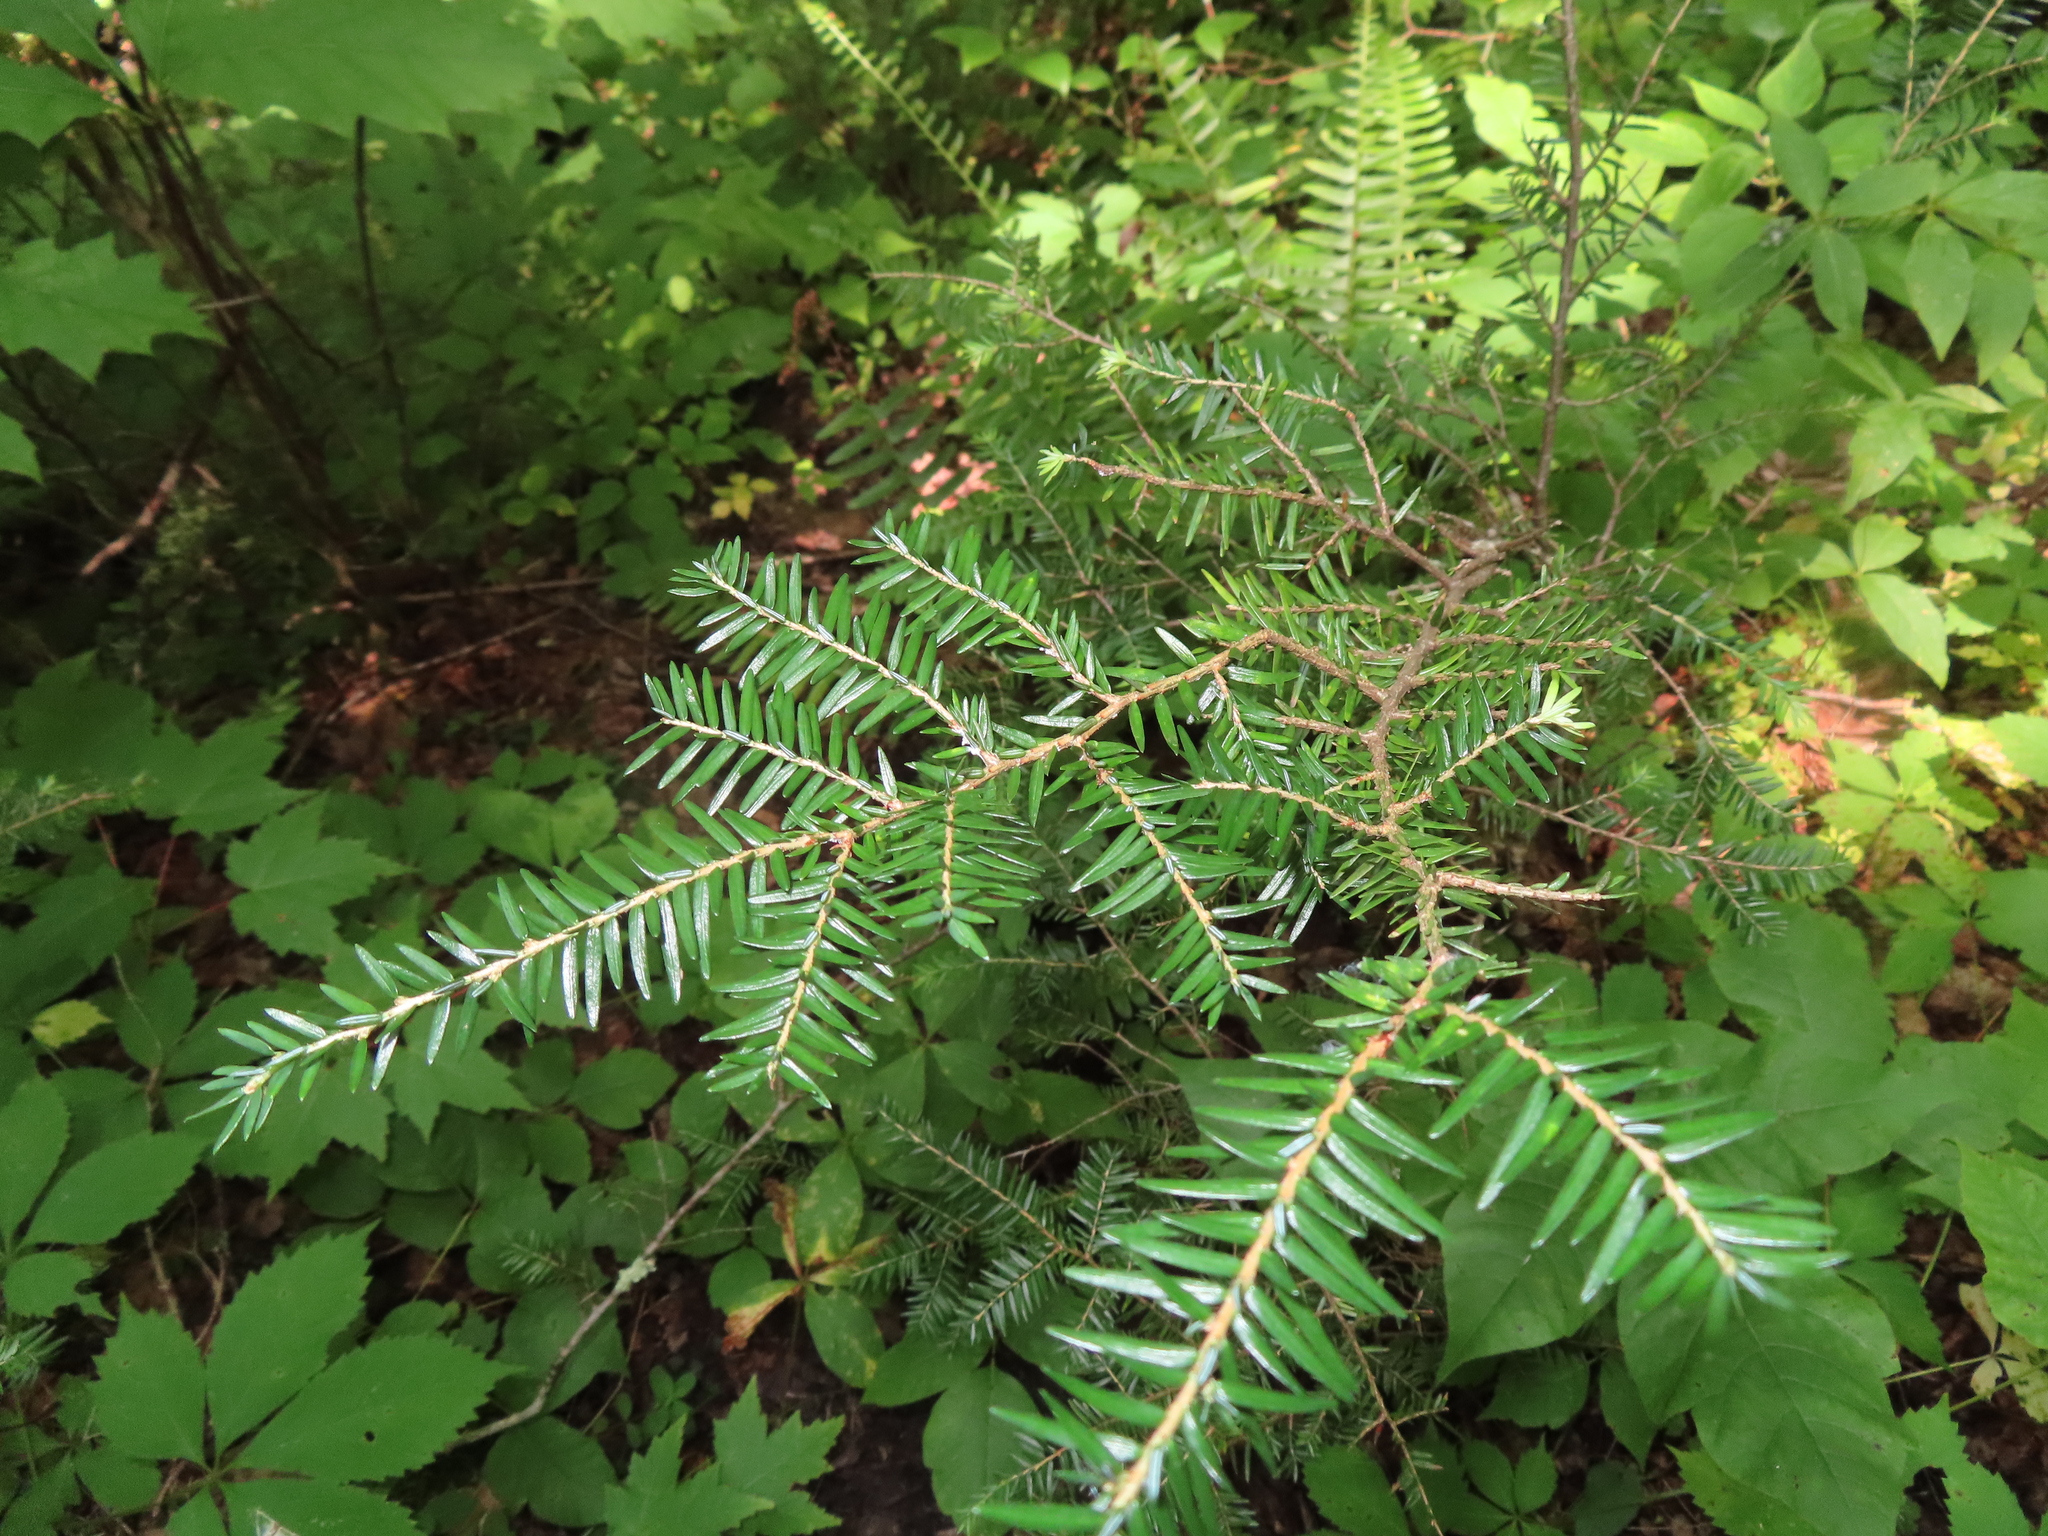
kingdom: Plantae
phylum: Tracheophyta
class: Pinopsida
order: Pinales
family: Pinaceae
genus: Tsuga
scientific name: Tsuga canadensis
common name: Eastern hemlock
